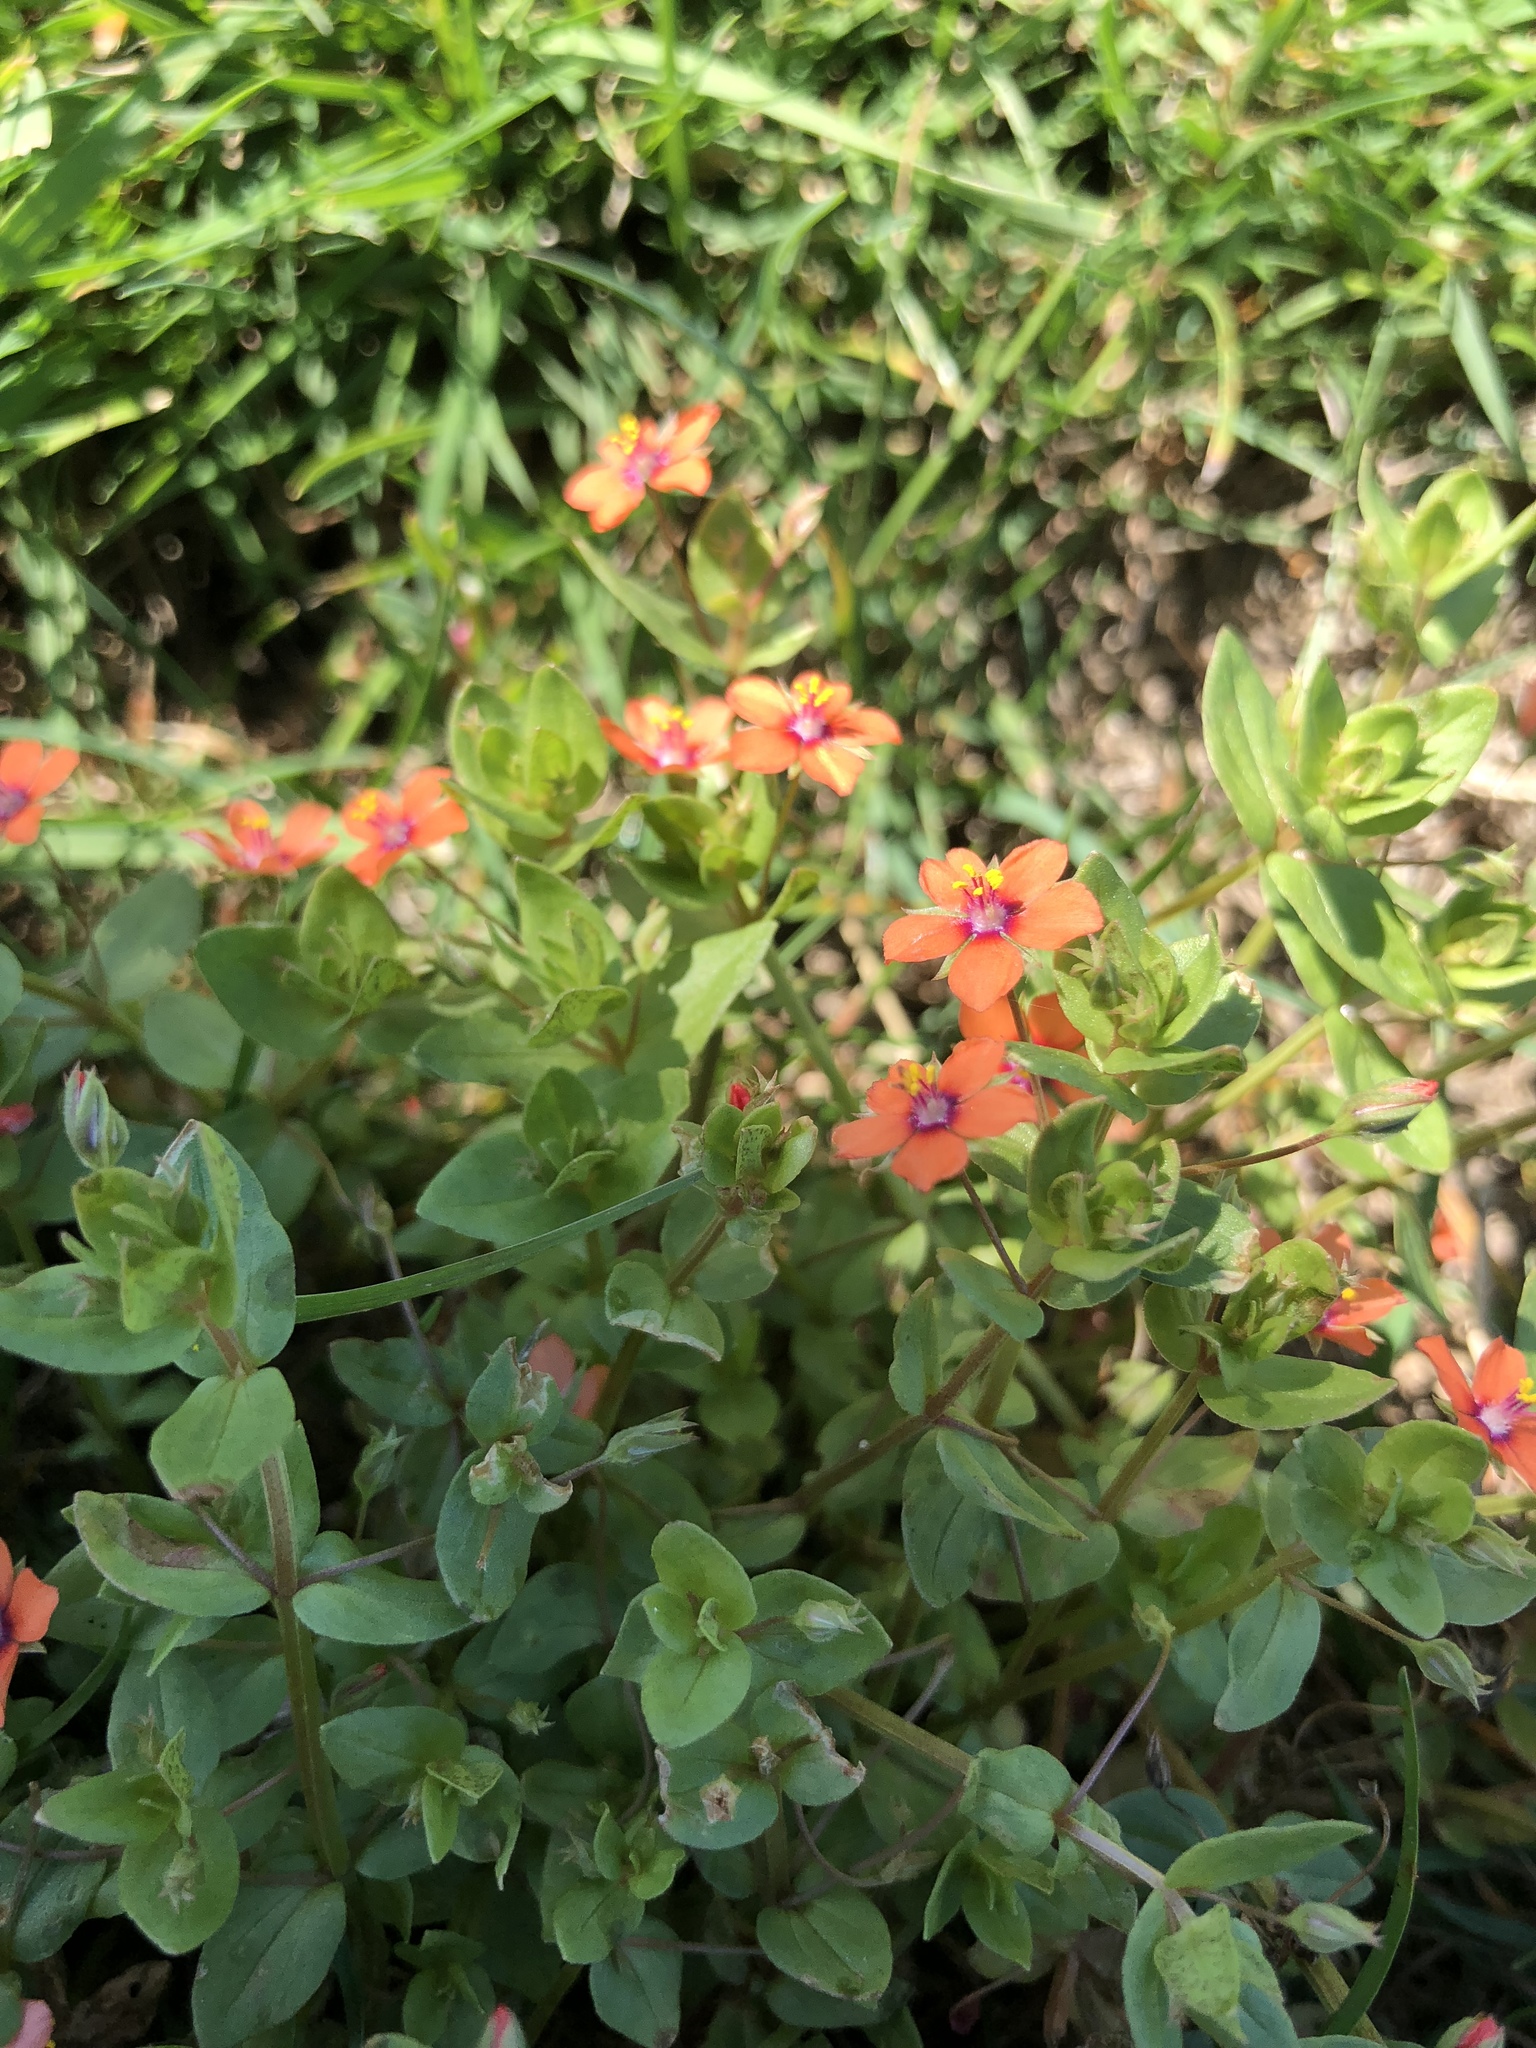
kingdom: Plantae
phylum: Tracheophyta
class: Magnoliopsida
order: Ericales
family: Primulaceae
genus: Lysimachia
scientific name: Lysimachia arvensis
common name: Scarlet pimpernel
